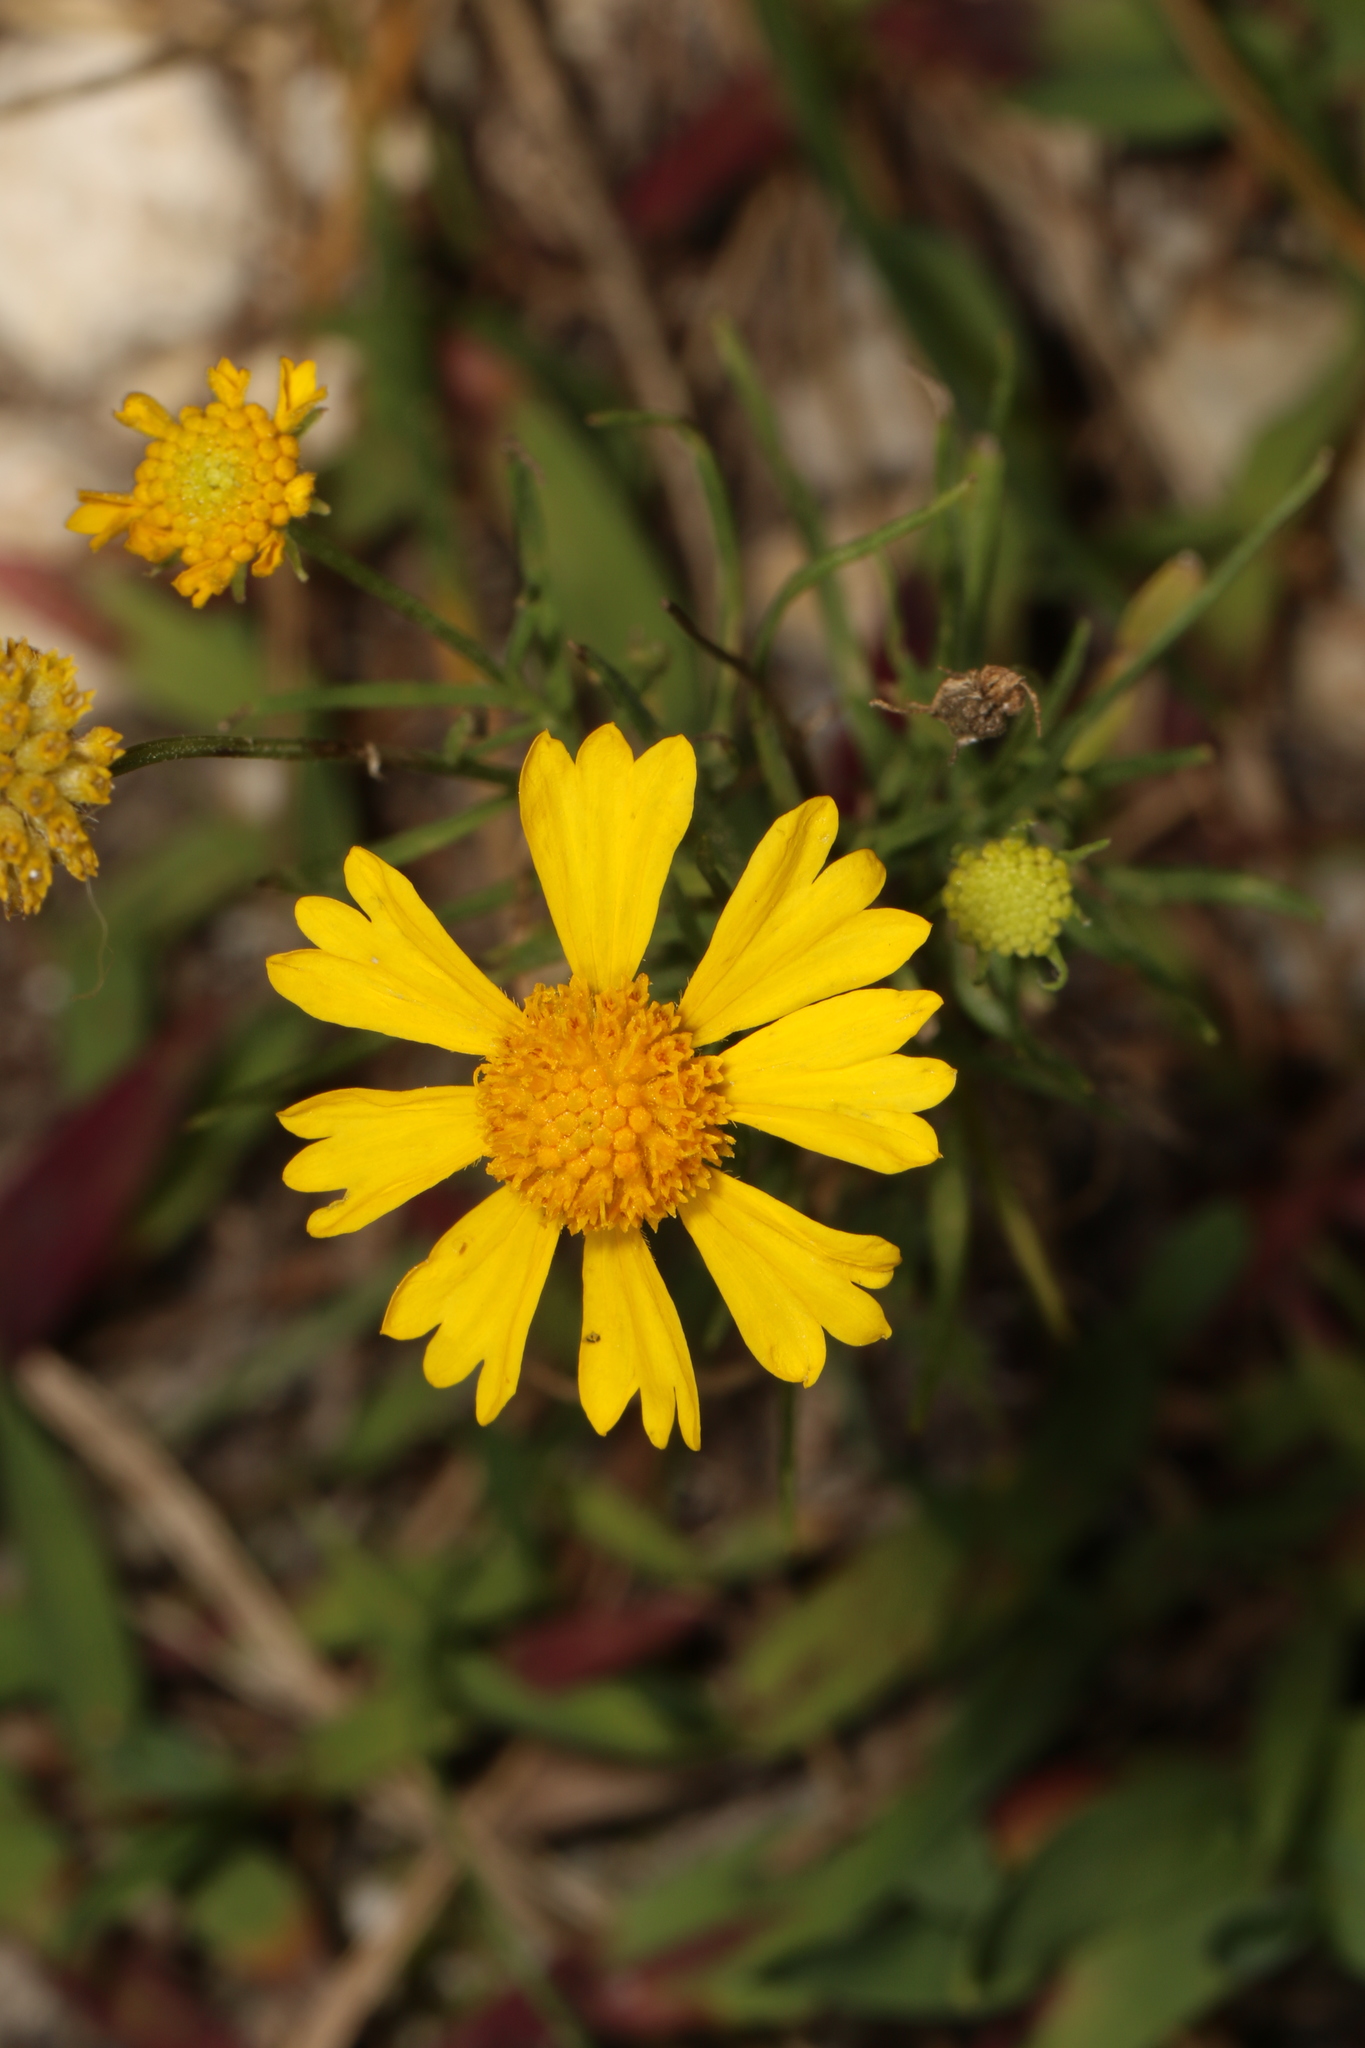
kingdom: Plantae
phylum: Tracheophyta
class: Magnoliopsida
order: Asterales
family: Asteraceae
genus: Helenium
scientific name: Helenium amarum
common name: Bitter sneezeweed
